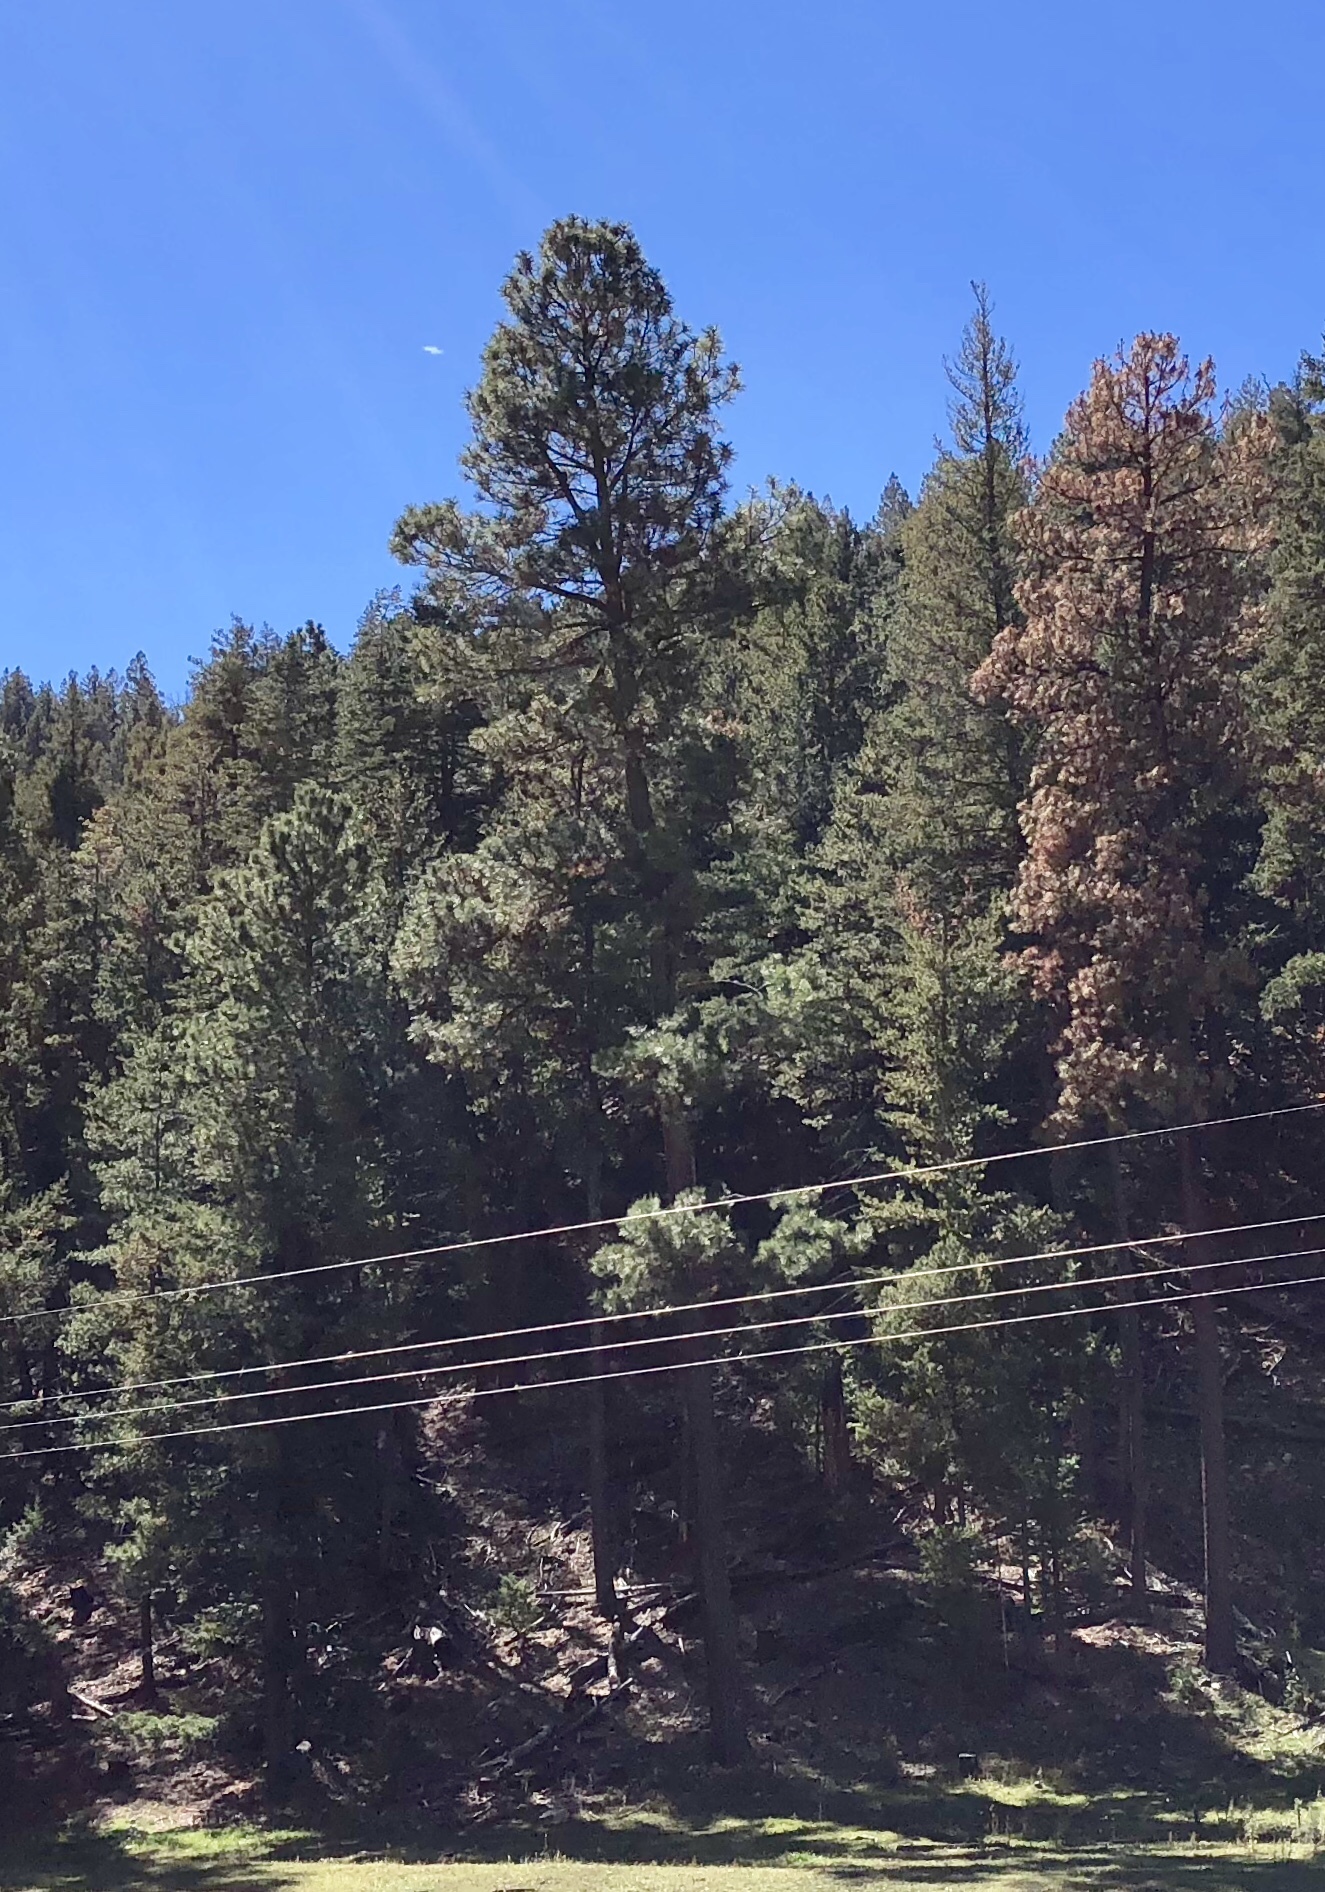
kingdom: Plantae
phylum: Tracheophyta
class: Pinopsida
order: Pinales
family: Pinaceae
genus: Pinus
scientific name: Pinus ponderosa
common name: Western yellow-pine
